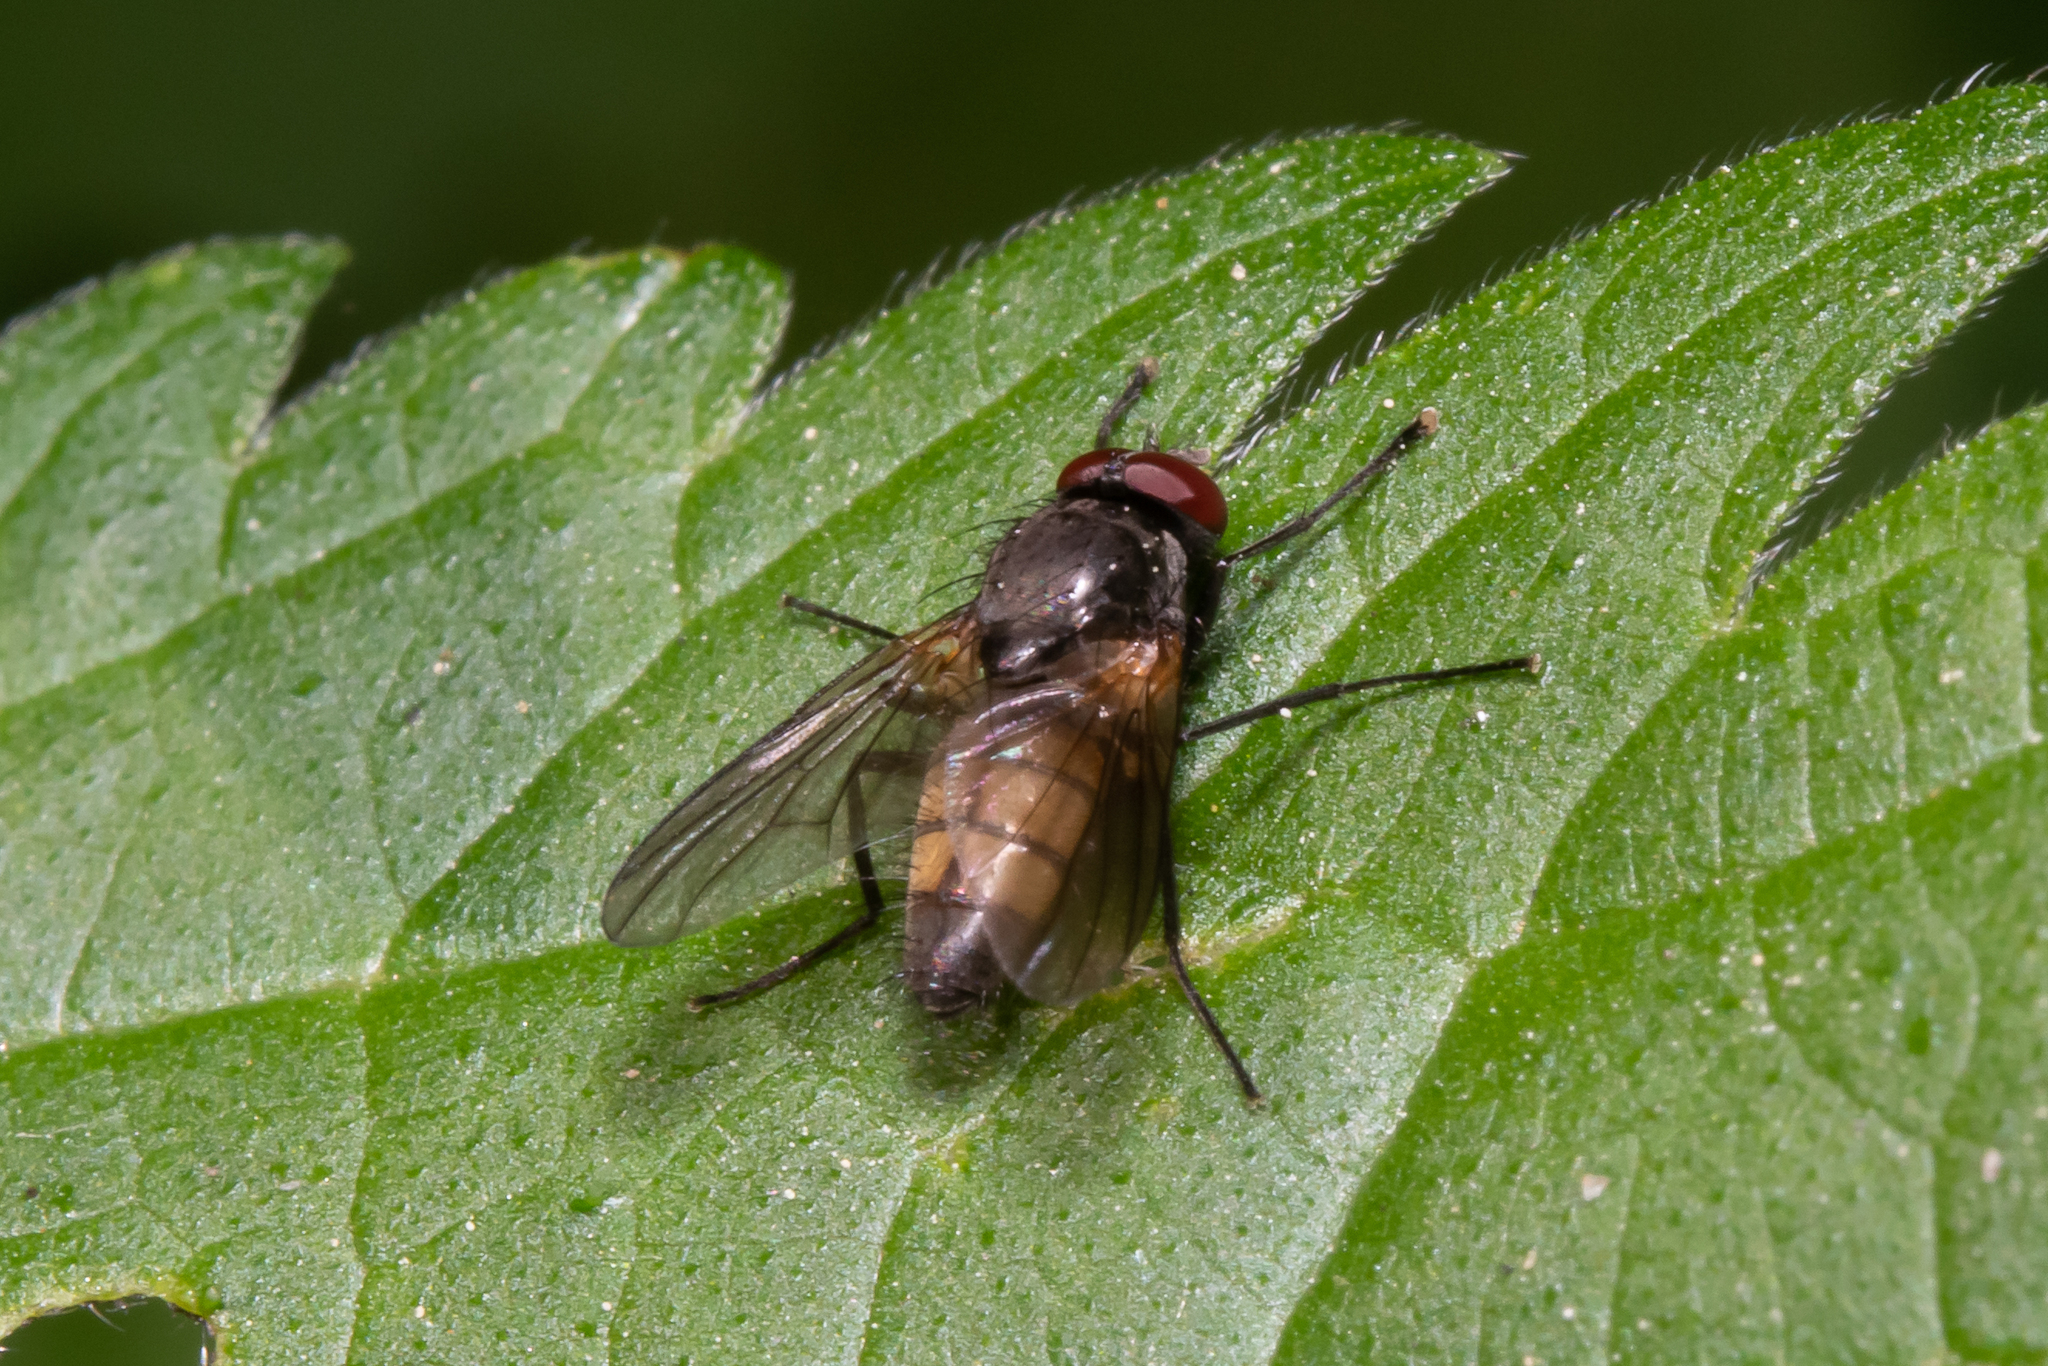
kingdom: Animalia
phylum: Arthropoda
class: Insecta
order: Diptera
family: Muscidae
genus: Thricops
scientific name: Thricops semicinereus
